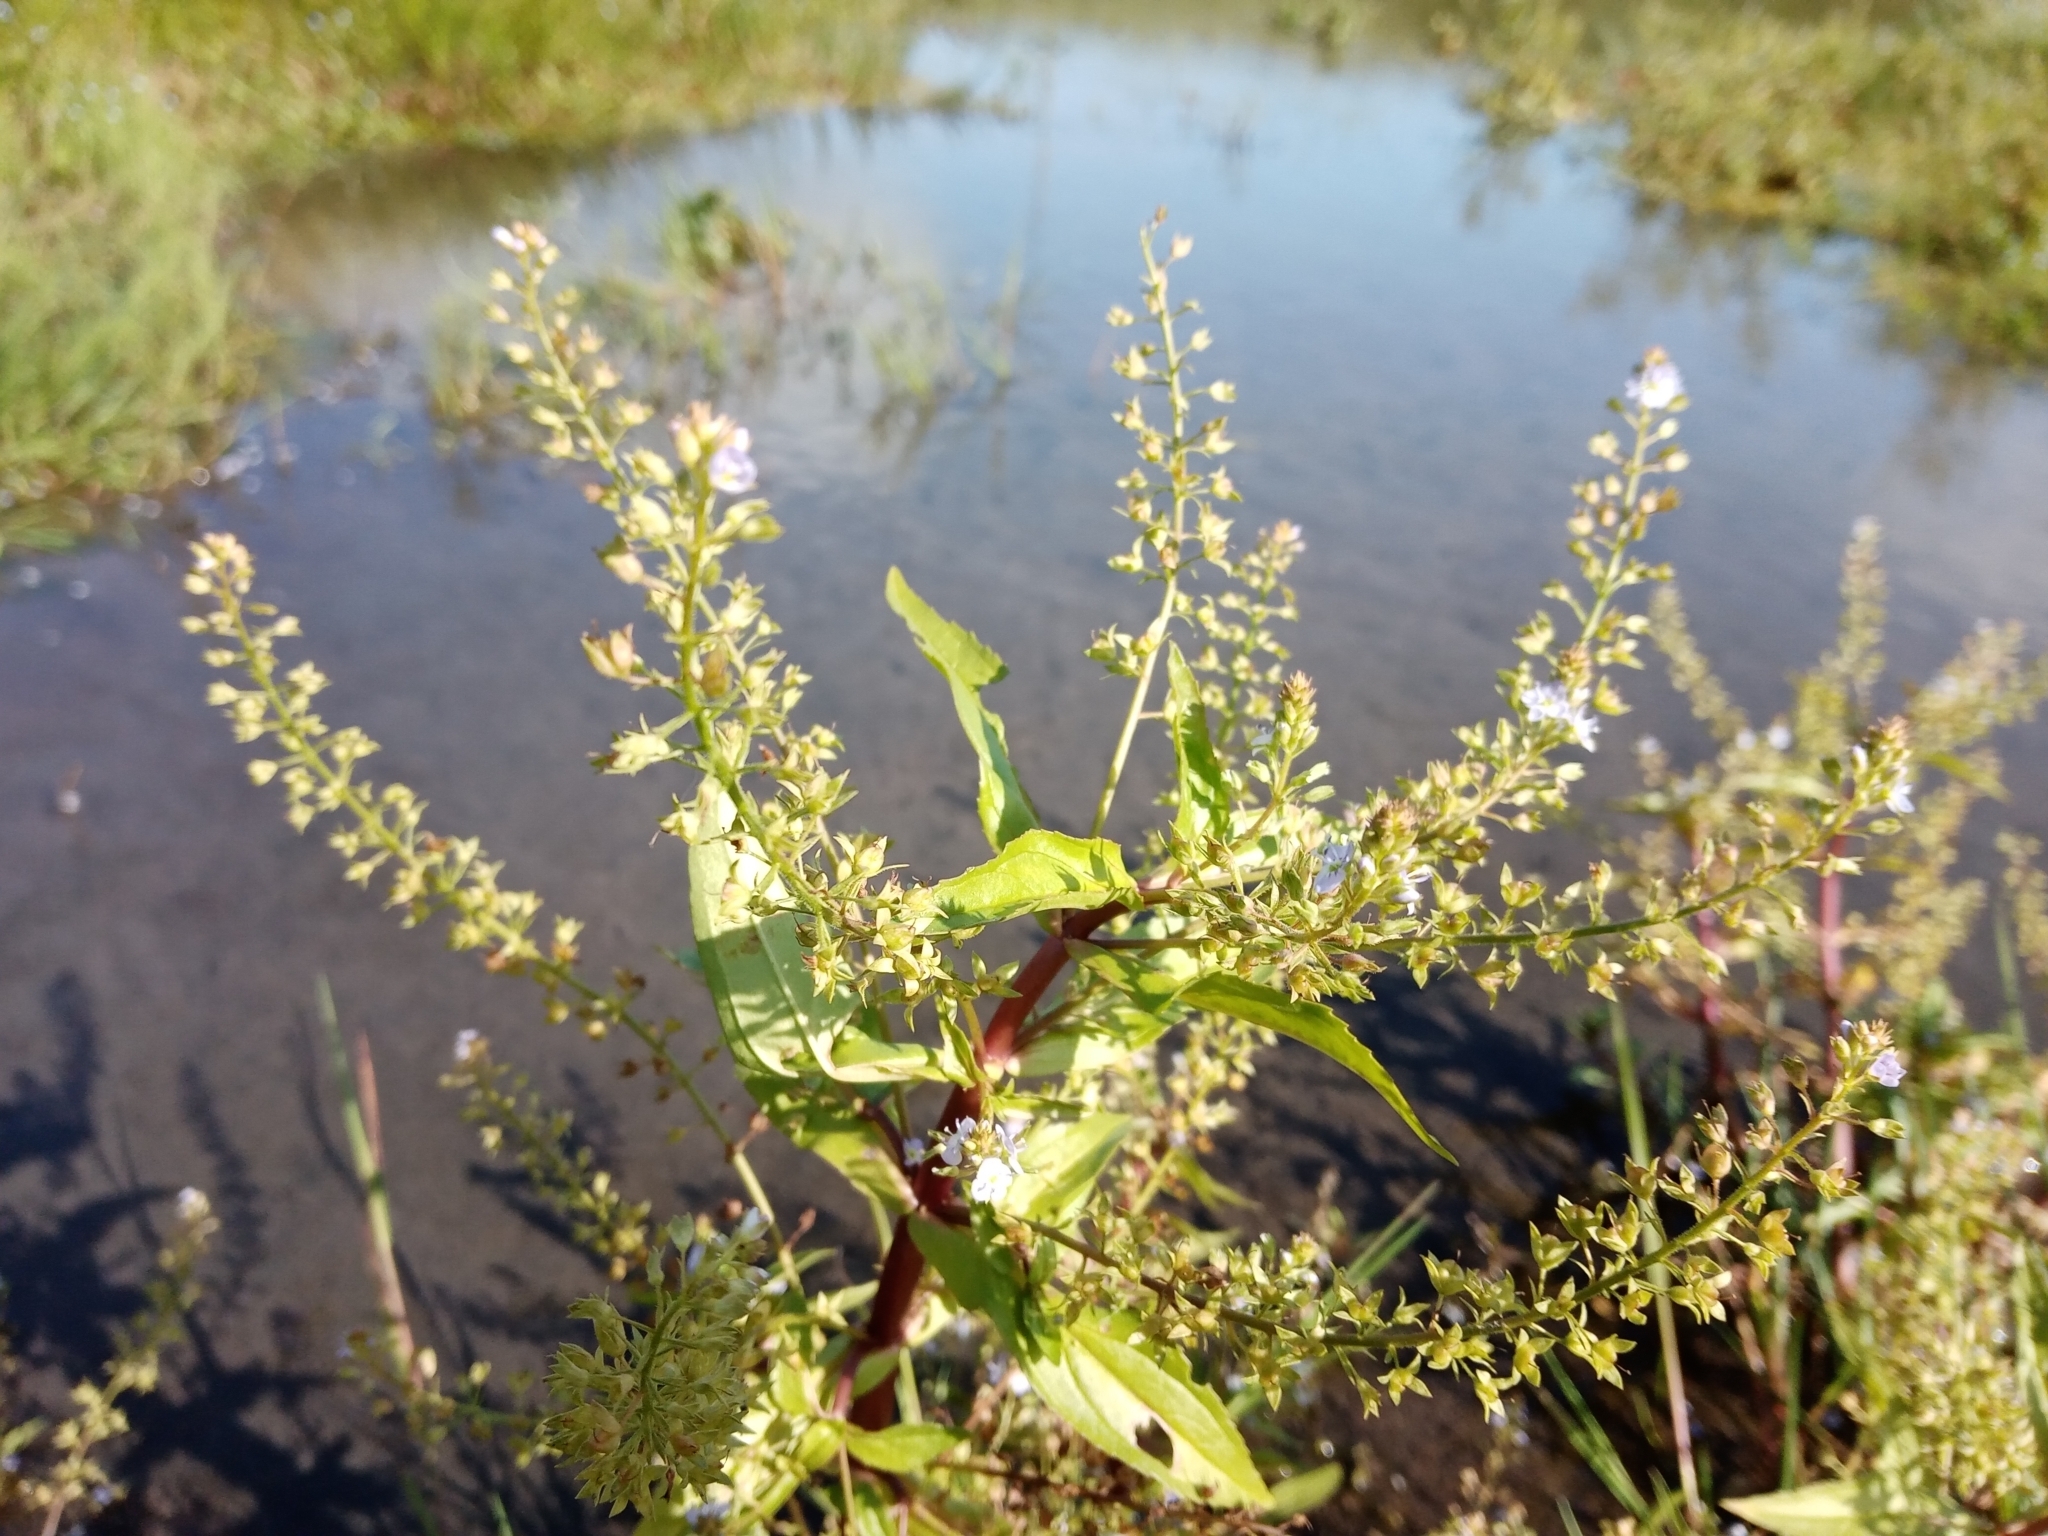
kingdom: Plantae
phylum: Tracheophyta
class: Magnoliopsida
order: Lamiales
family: Plantaginaceae
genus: Veronica
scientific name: Veronica anagallis-aquatica
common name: Water speedwell
